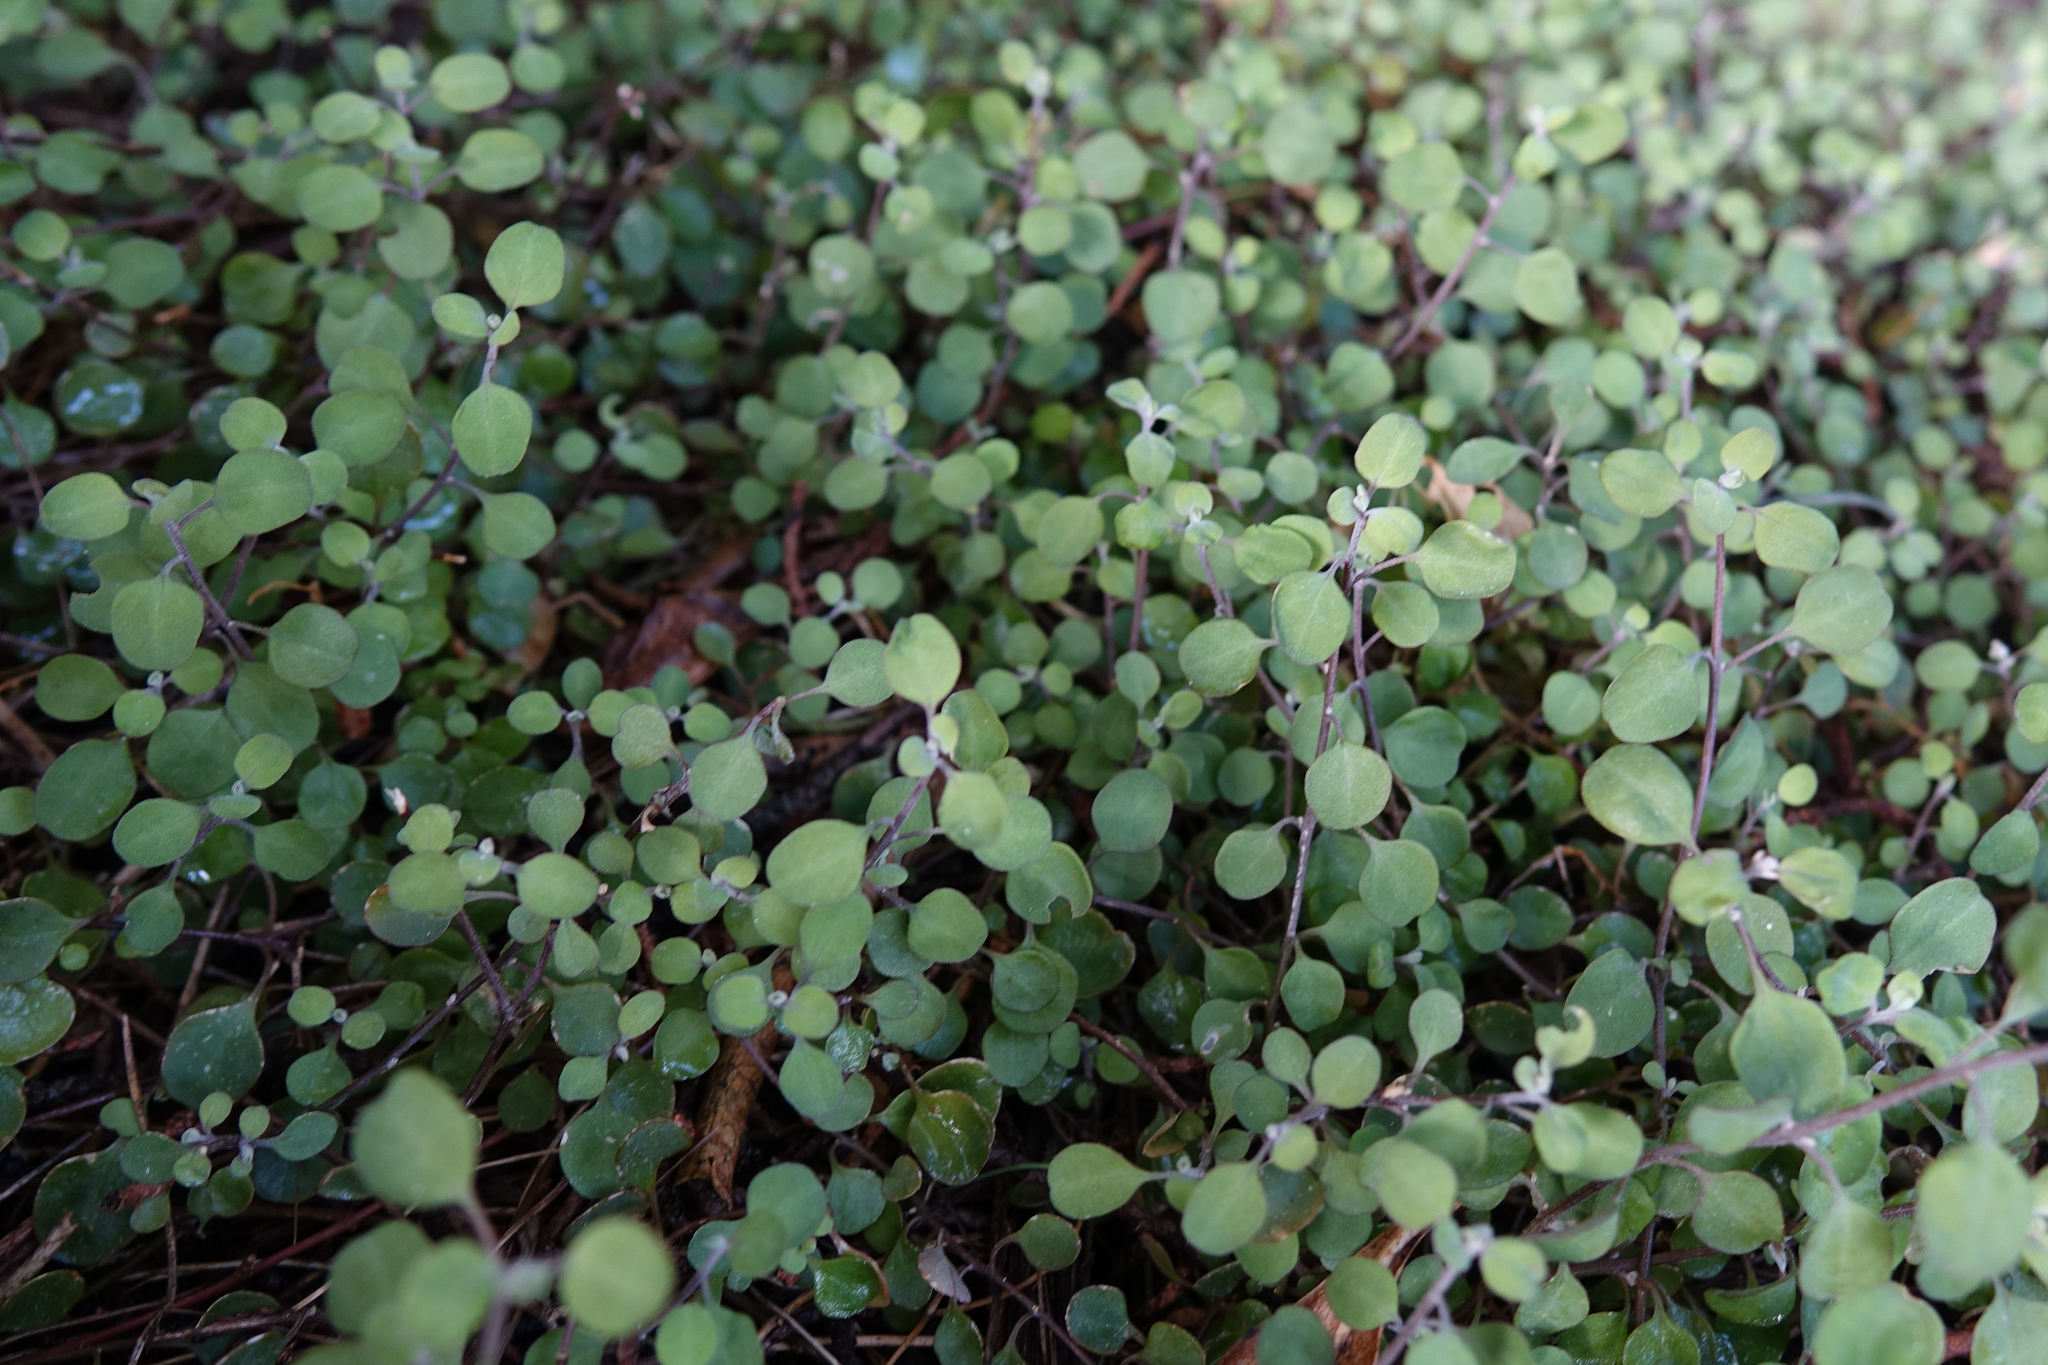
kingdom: Plantae
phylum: Tracheophyta
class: Magnoliopsida
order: Caryophyllales
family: Amaranthaceae
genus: Chenopodium
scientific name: Chenopodium allanii
